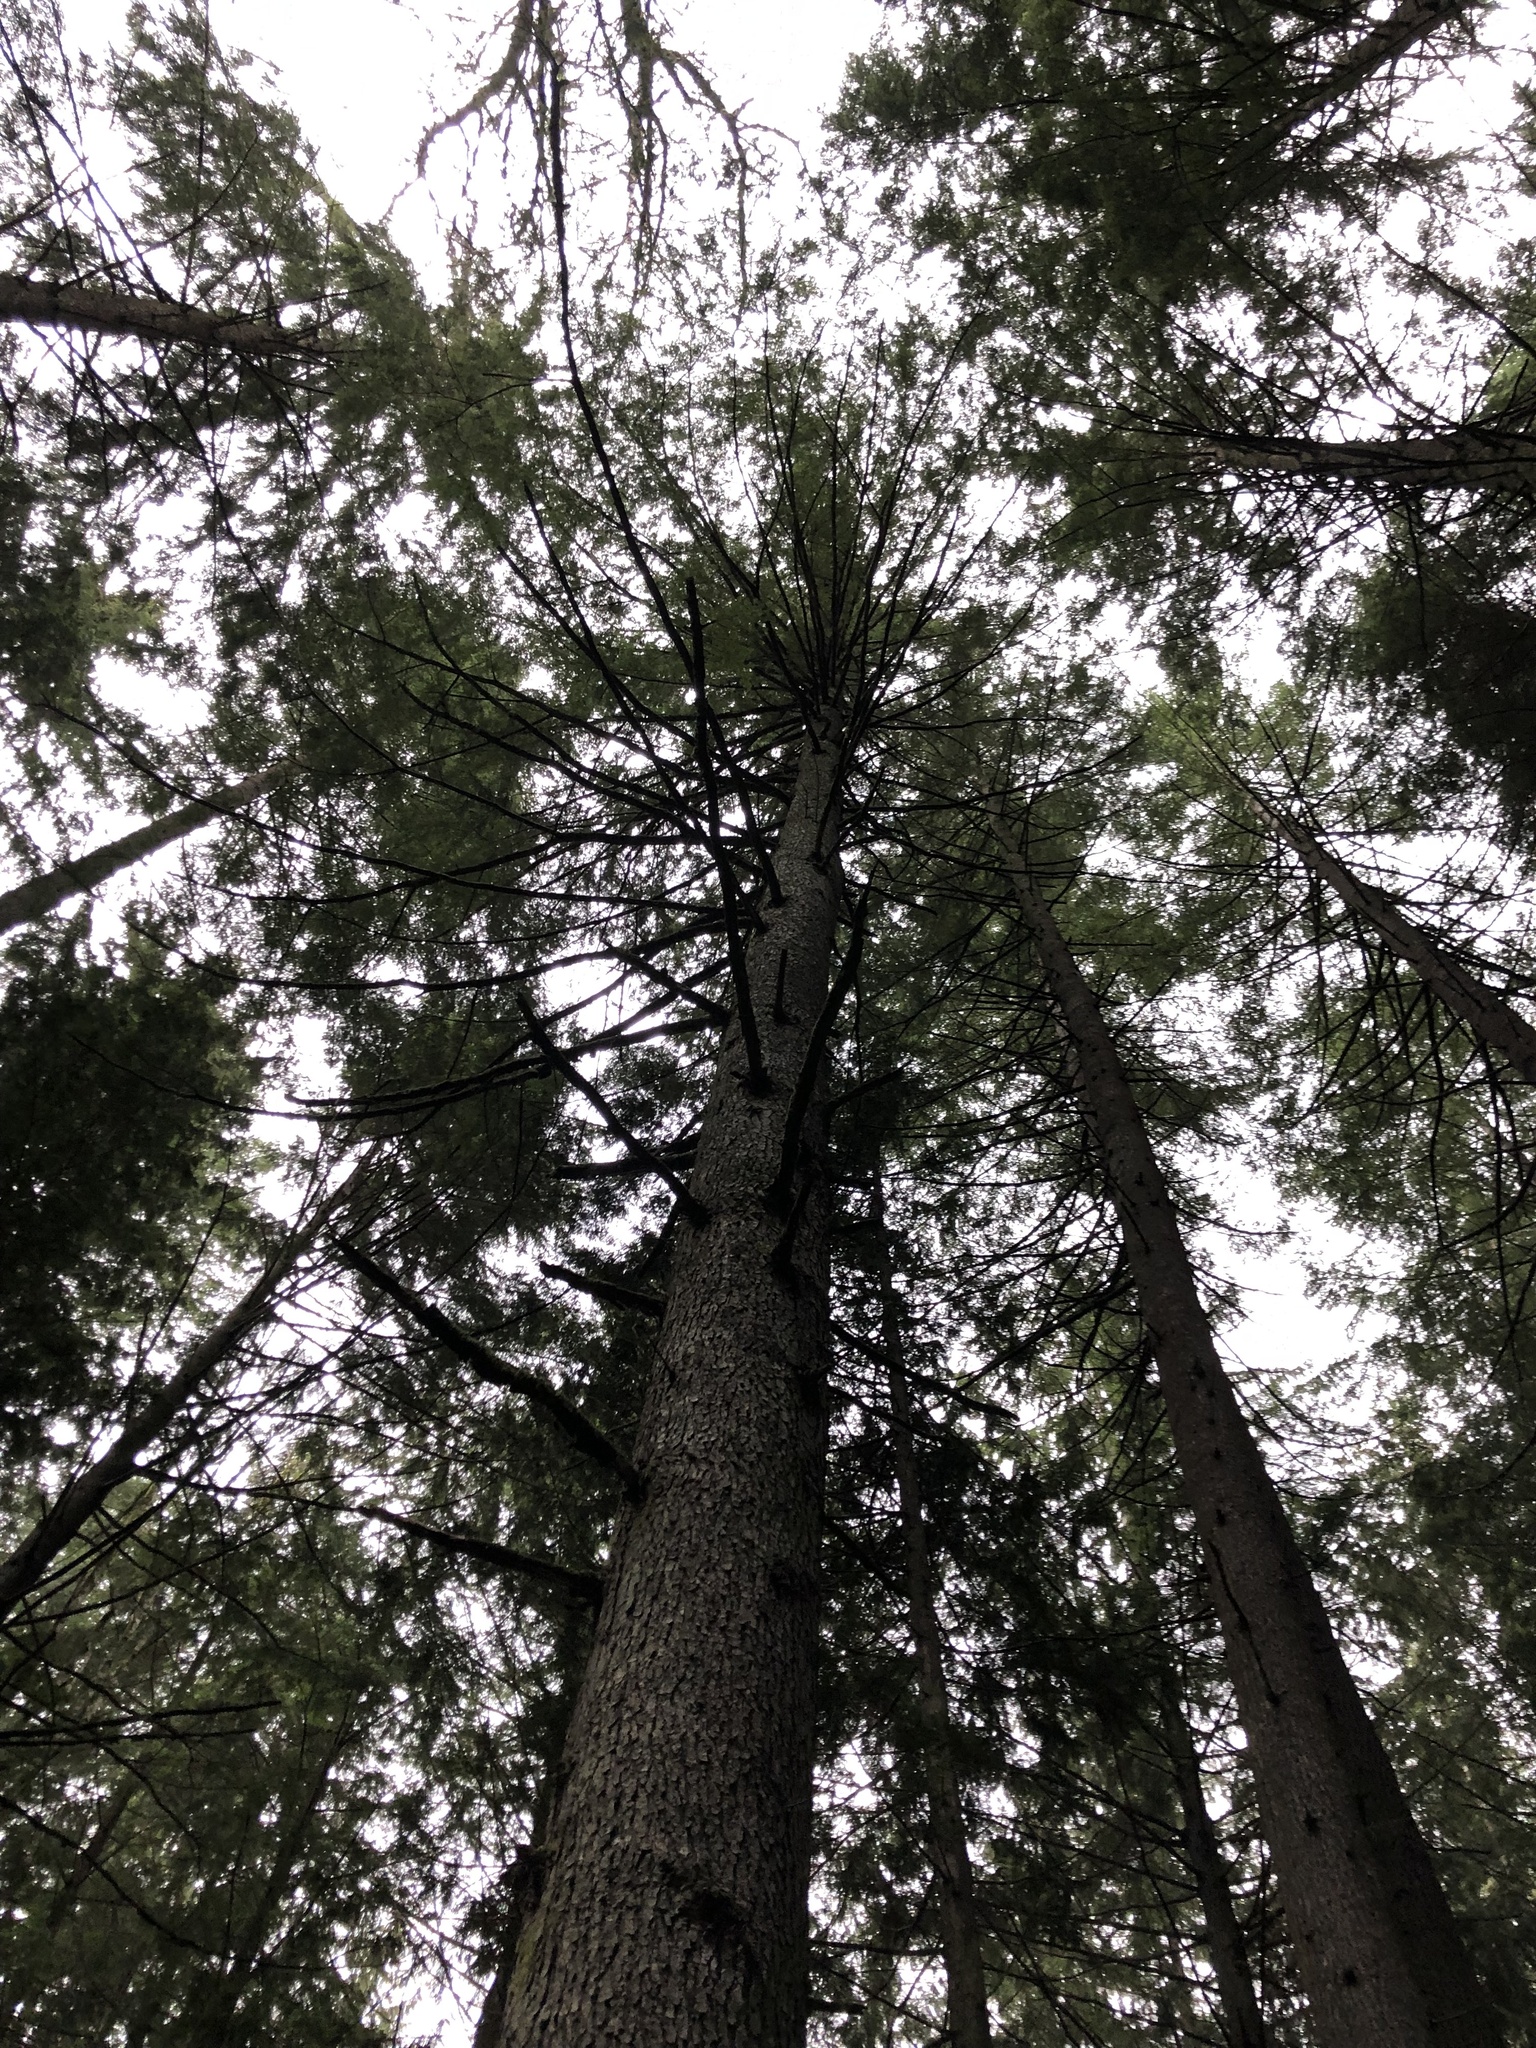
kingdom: Plantae
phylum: Tracheophyta
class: Pinopsida
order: Pinales
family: Pinaceae
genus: Tsuga
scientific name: Tsuga heterophylla
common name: Western hemlock
